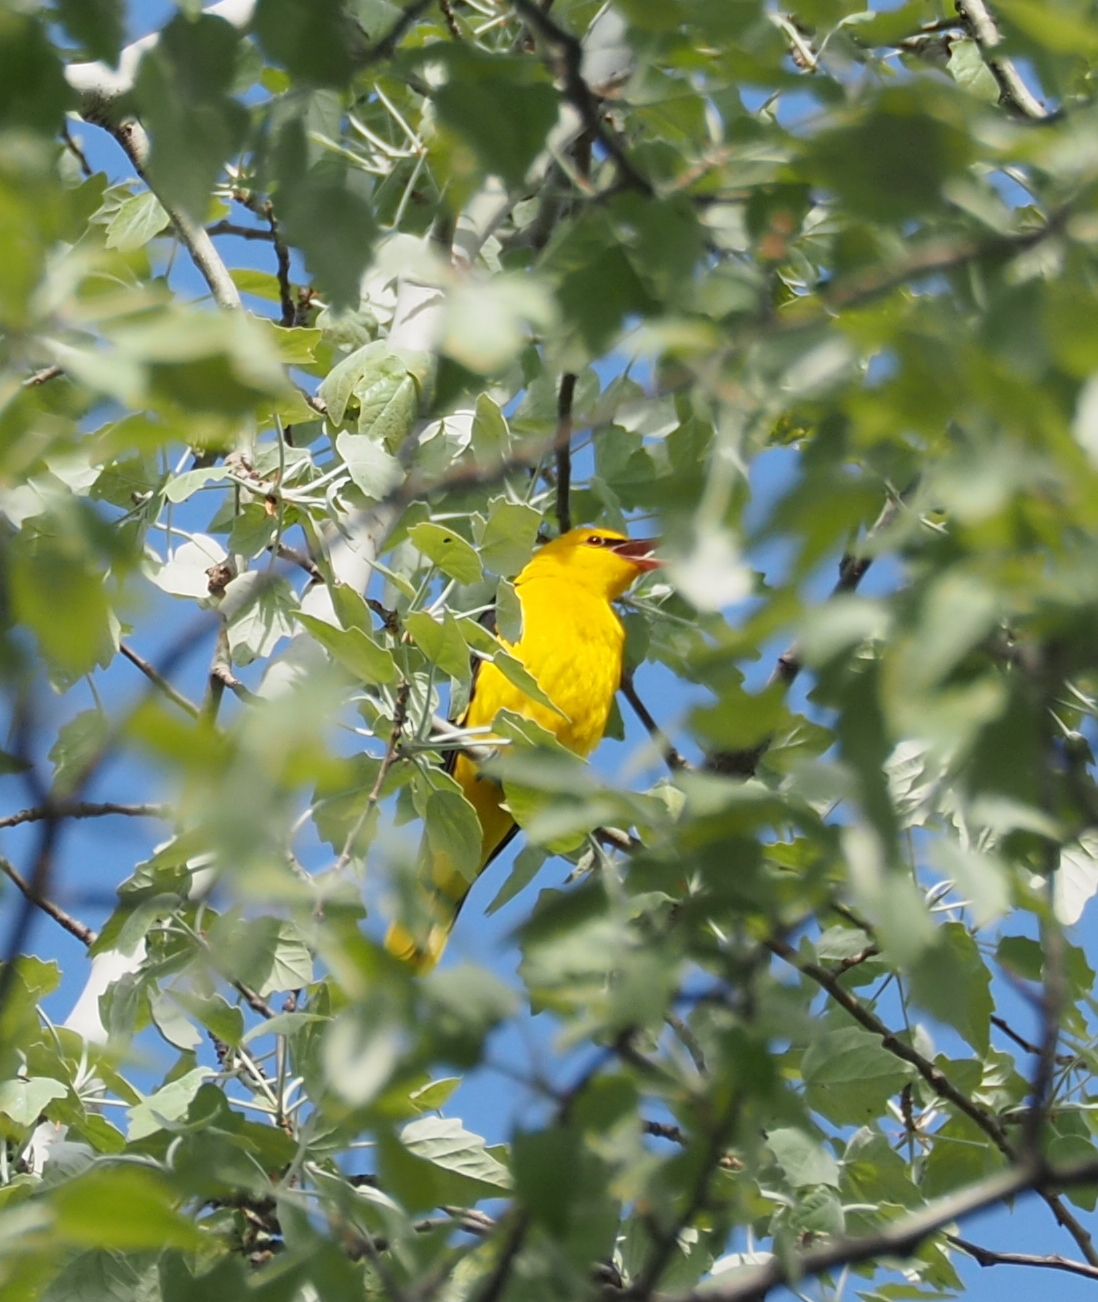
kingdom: Animalia
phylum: Chordata
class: Aves
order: Passeriformes
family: Oriolidae
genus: Oriolus
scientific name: Oriolus oriolus
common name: Eurasian golden oriole
